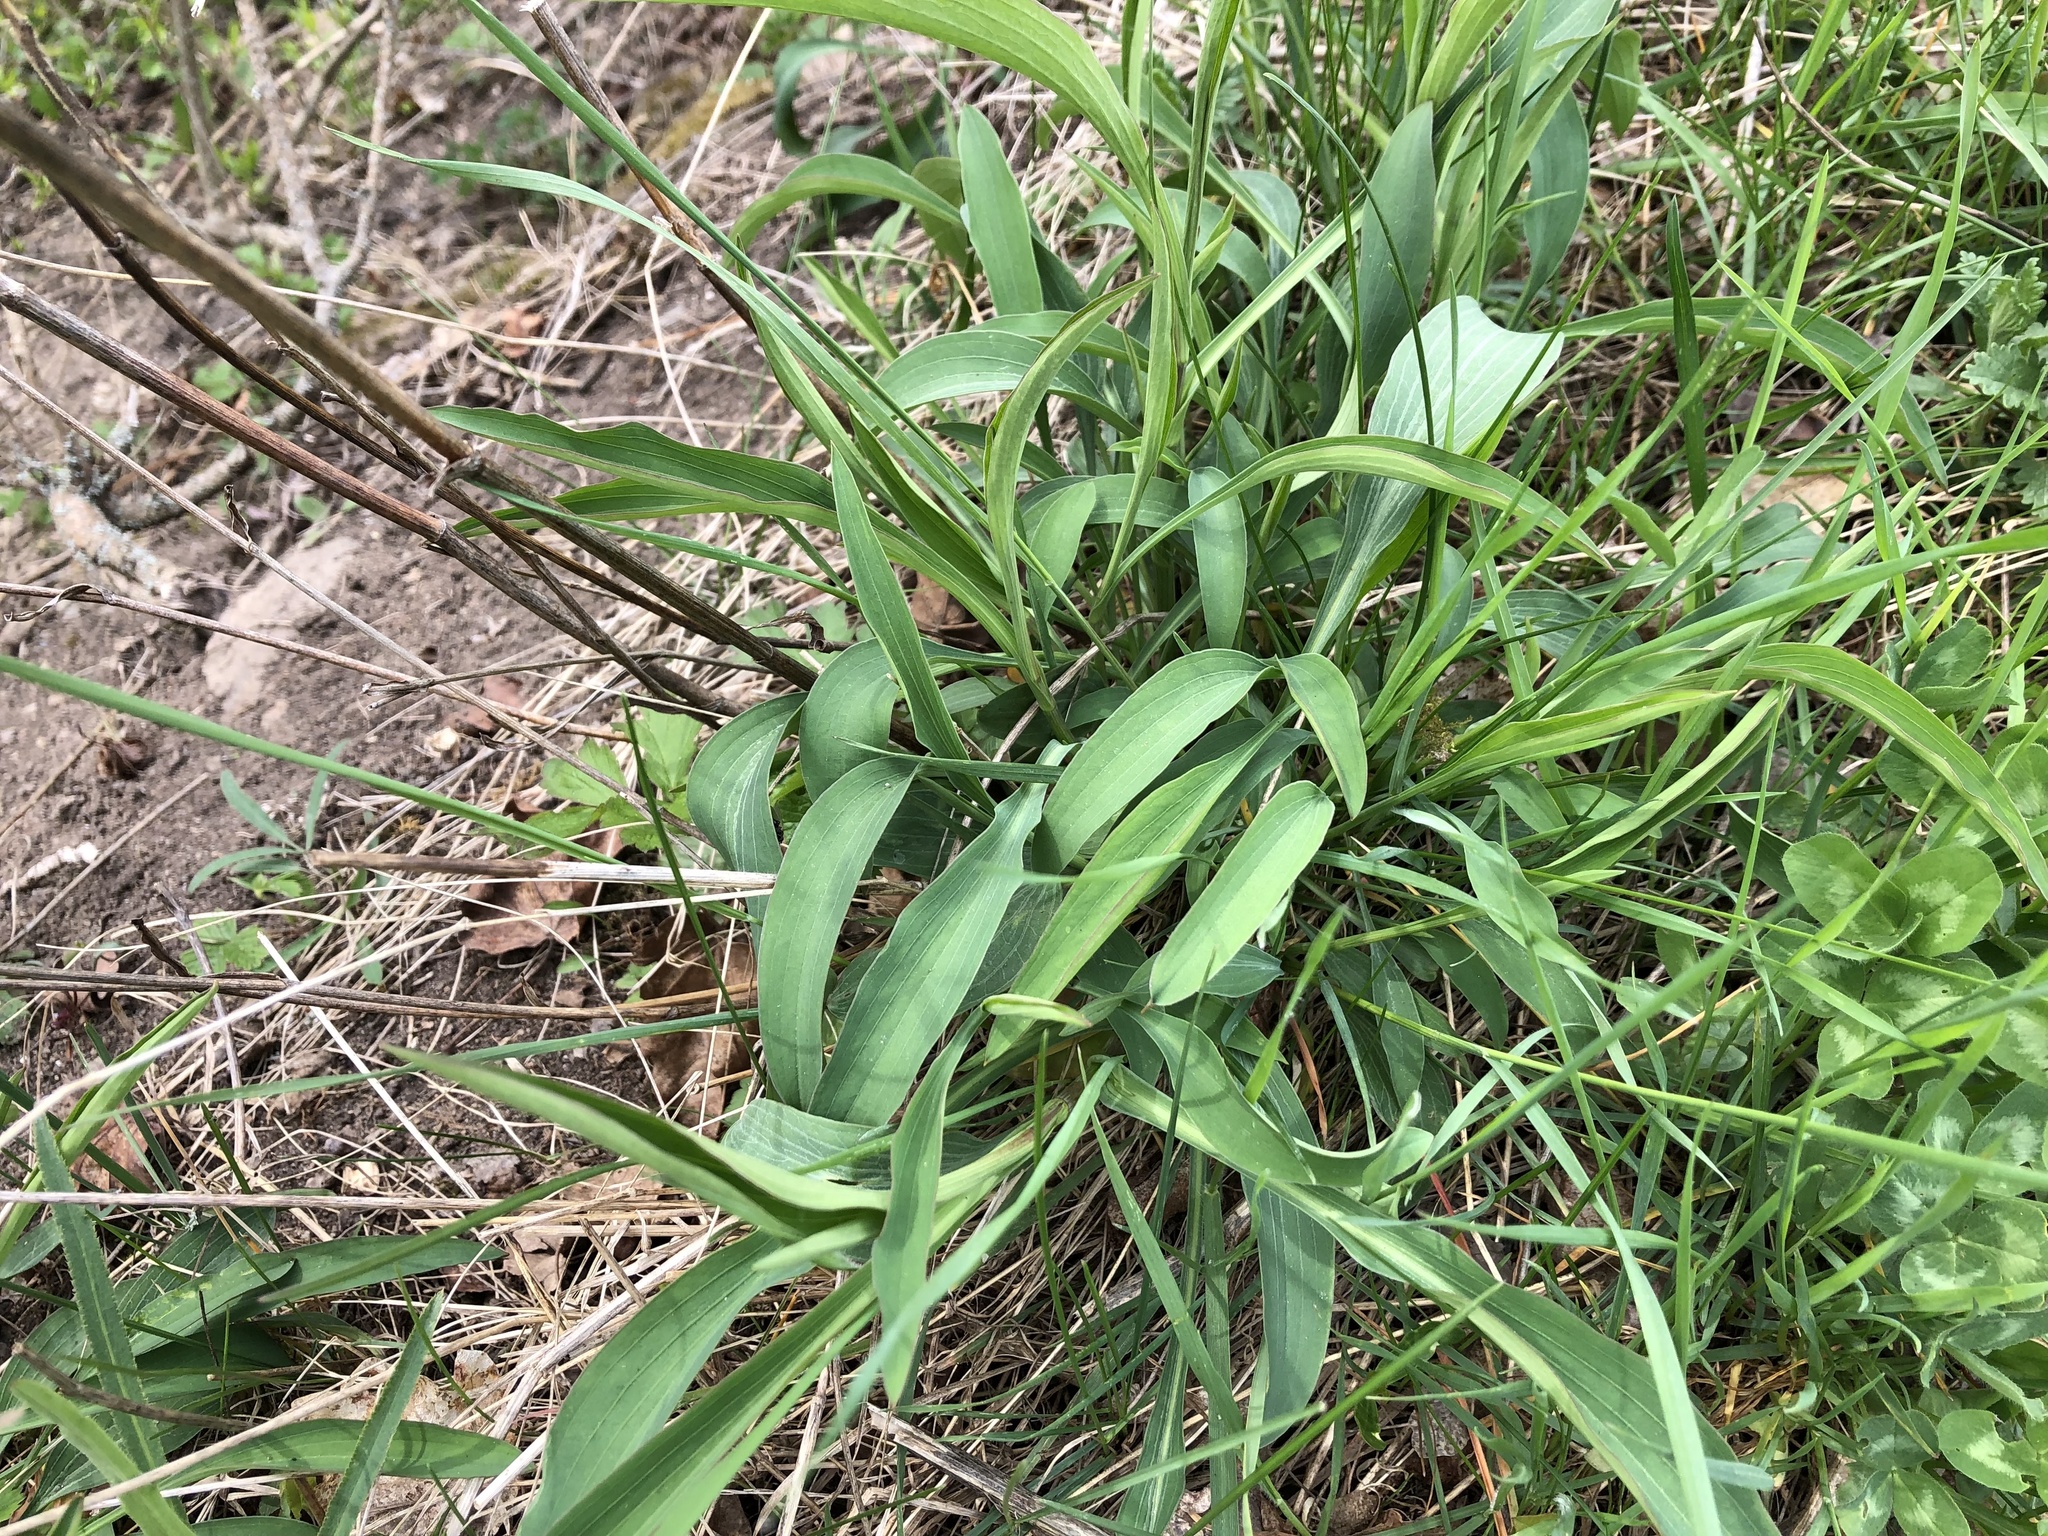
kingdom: Plantae
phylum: Tracheophyta
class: Magnoliopsida
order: Apiales
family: Apiaceae
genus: Bupleurum
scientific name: Bupleurum falcatum
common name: Sickle-leaved hare's-ear
